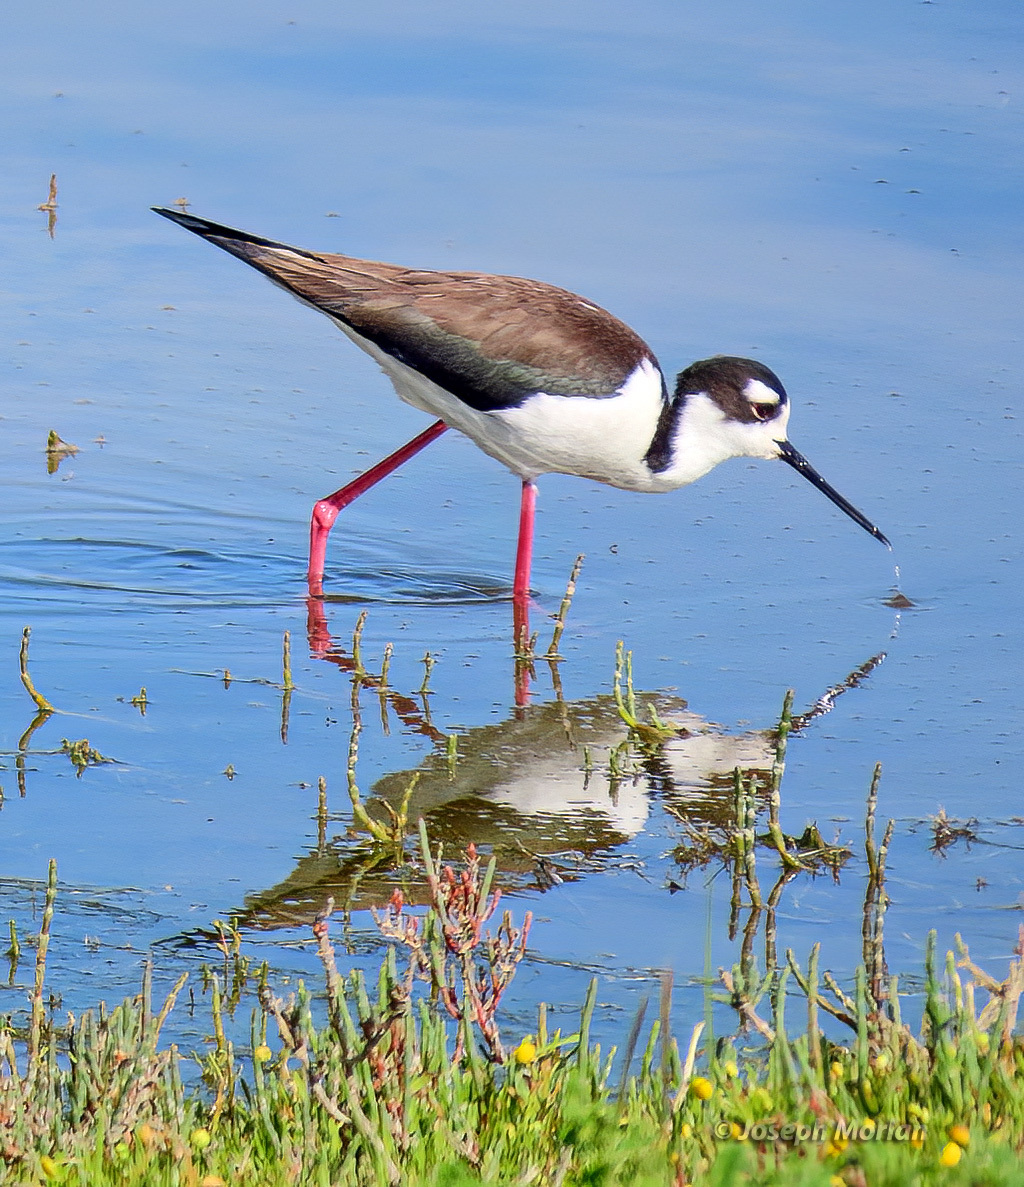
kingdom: Animalia
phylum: Chordata
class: Aves
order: Charadriiformes
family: Recurvirostridae
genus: Himantopus
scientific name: Himantopus mexicanus
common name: Black-necked stilt
